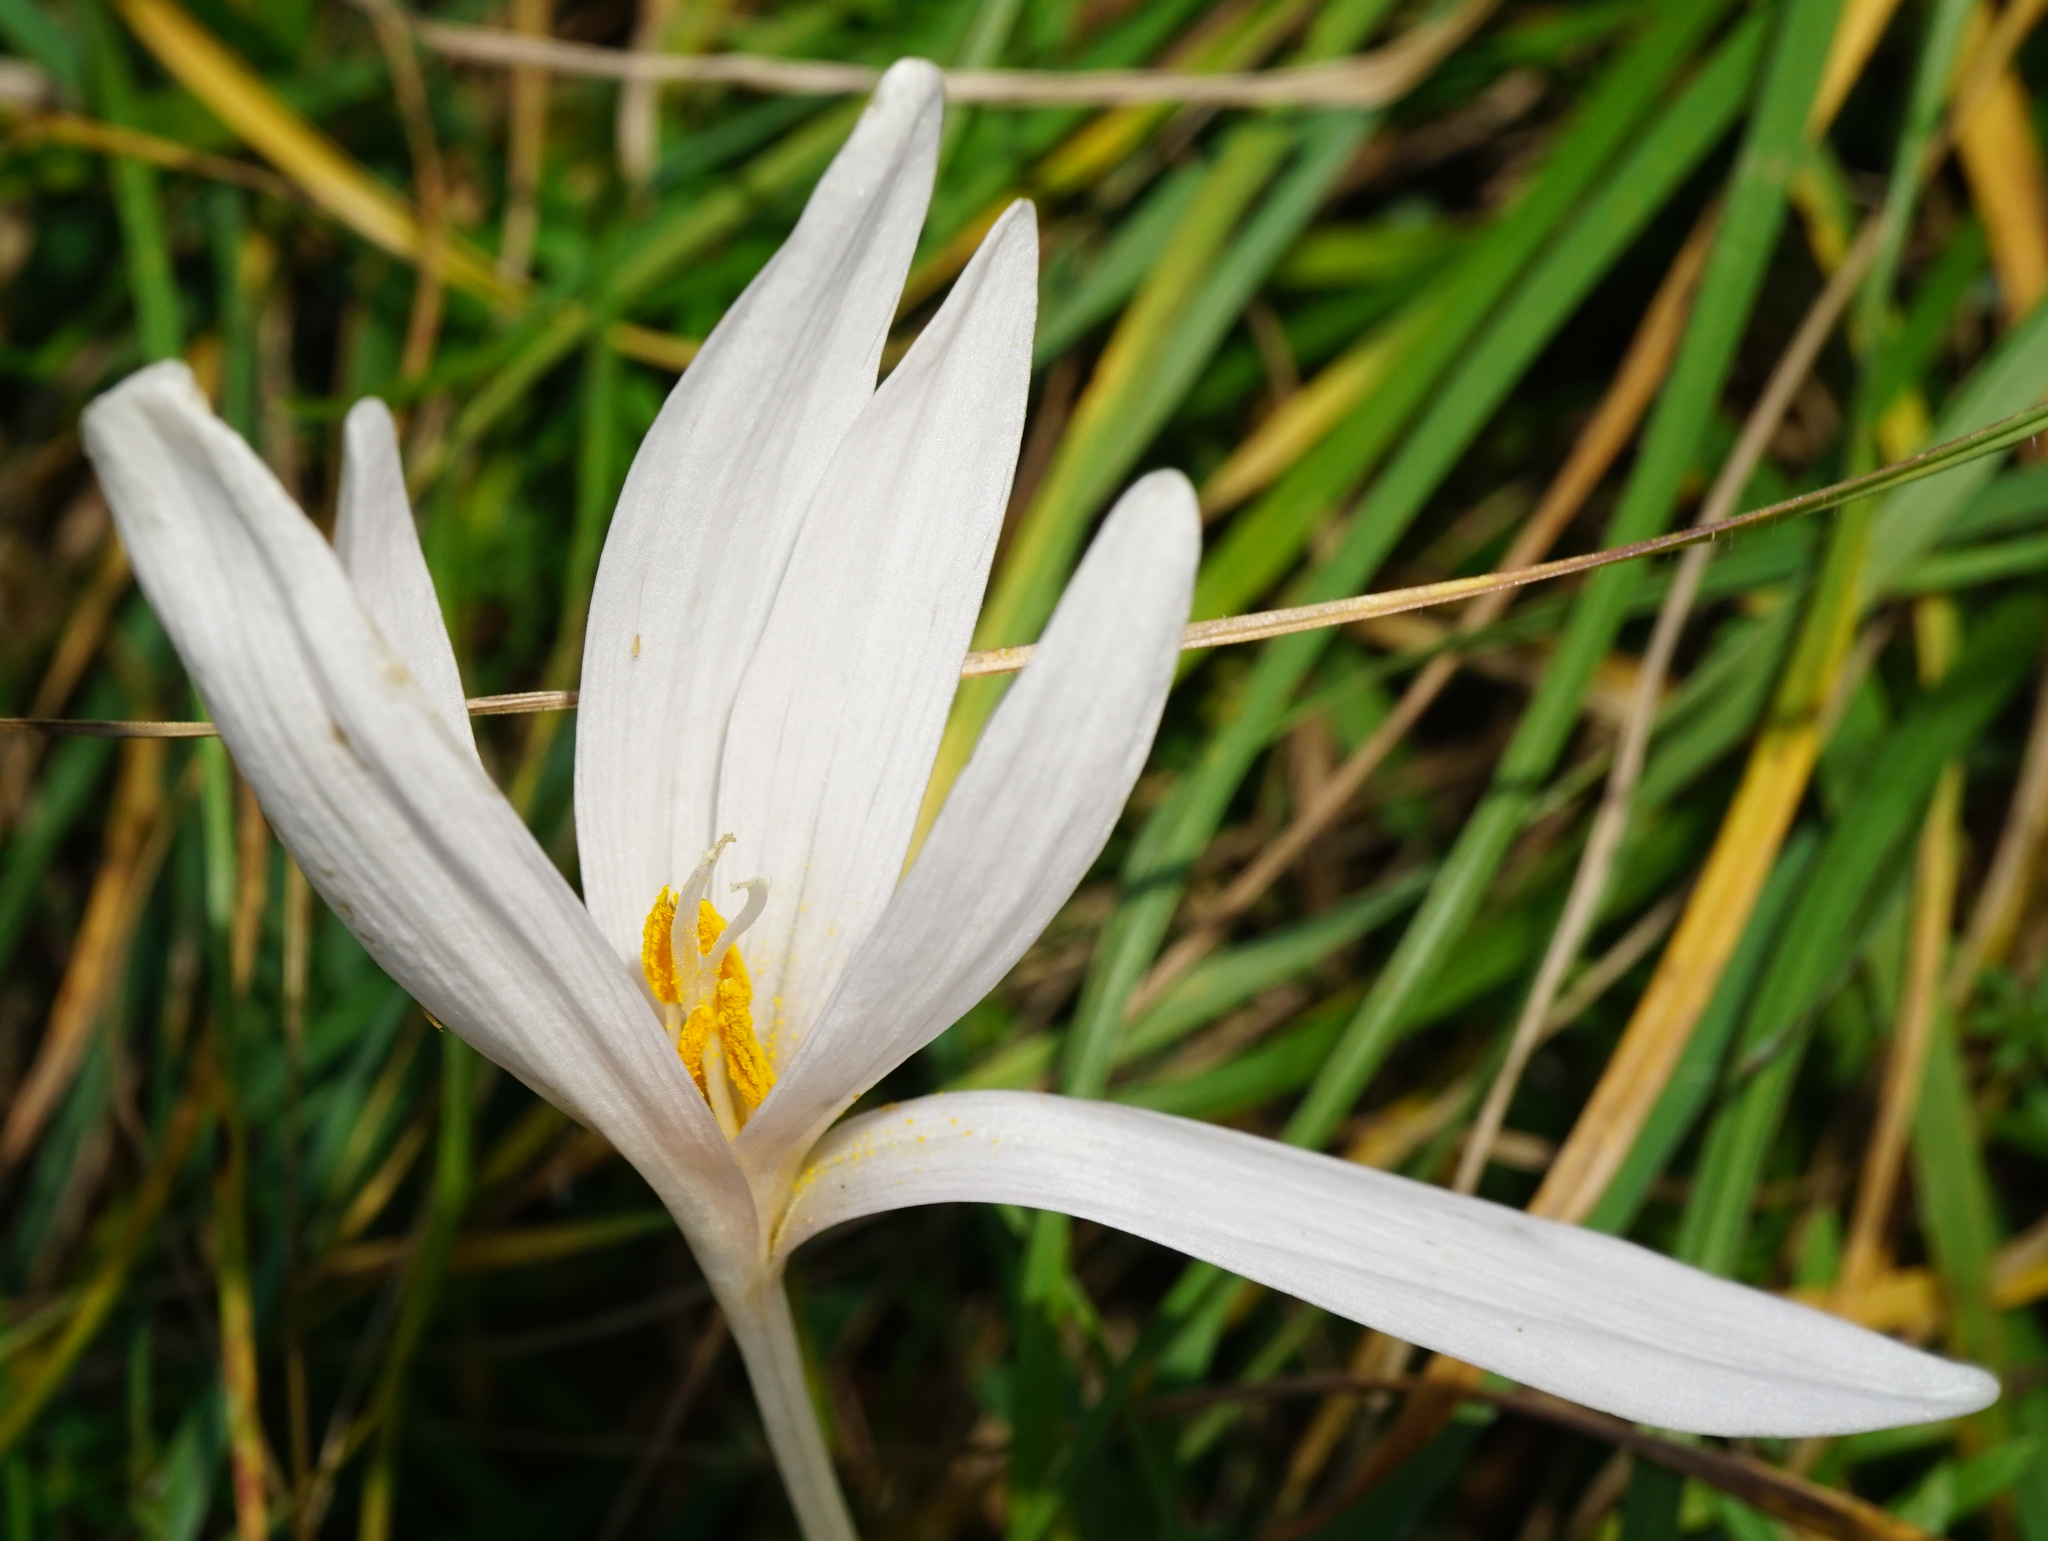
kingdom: Plantae
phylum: Tracheophyta
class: Liliopsida
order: Liliales
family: Colchicaceae
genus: Colchicum
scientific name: Colchicum autumnale
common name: Autumn crocus
